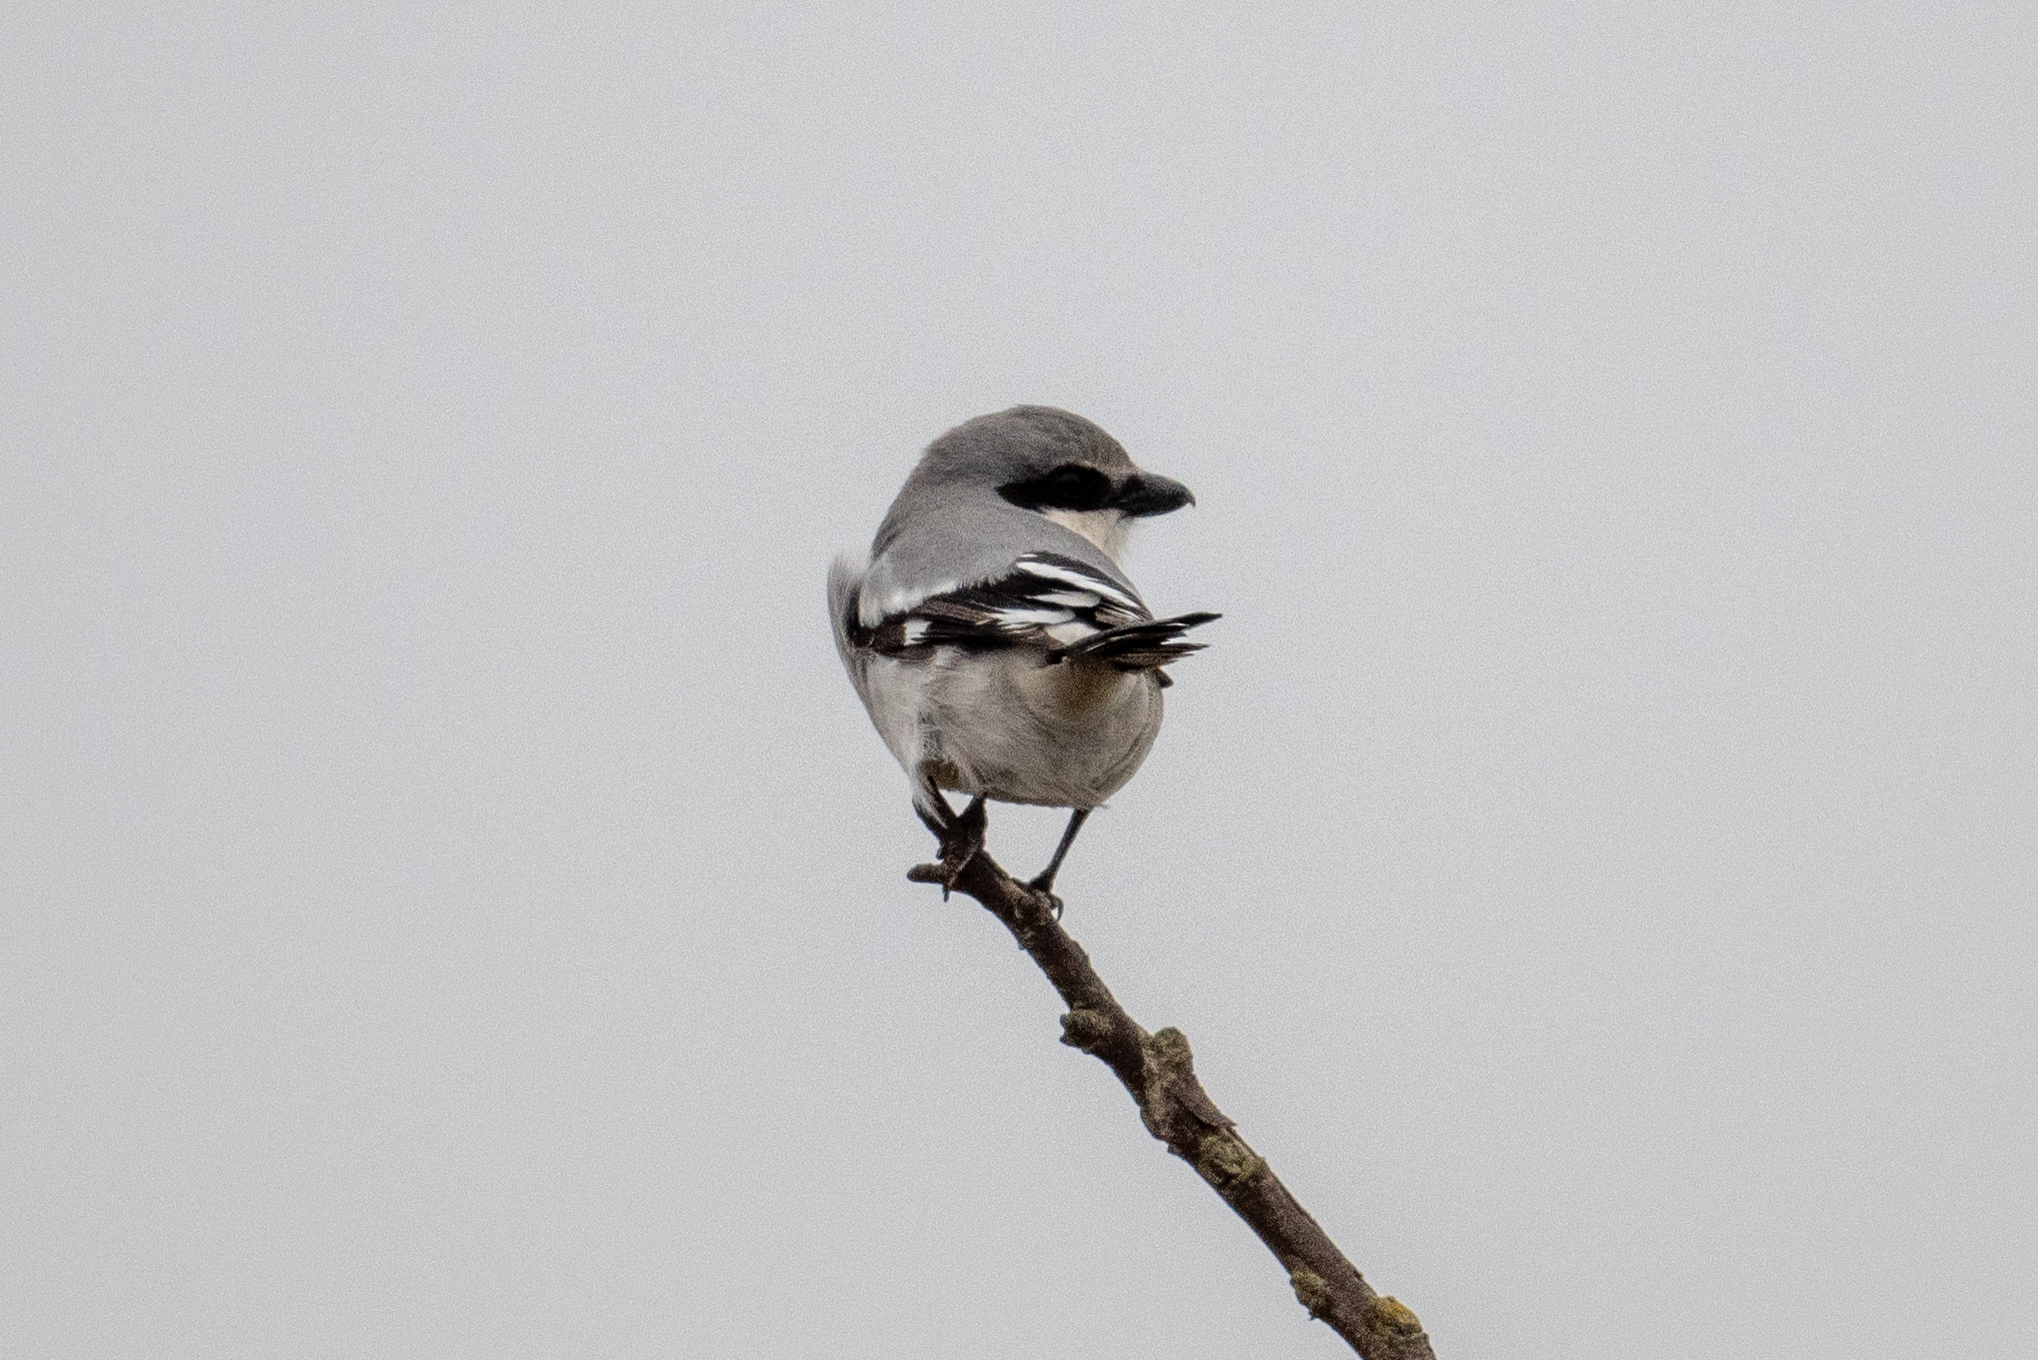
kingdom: Animalia
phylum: Chordata
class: Aves
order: Passeriformes
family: Laniidae
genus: Lanius
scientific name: Lanius ludovicianus
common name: Loggerhead shrike
